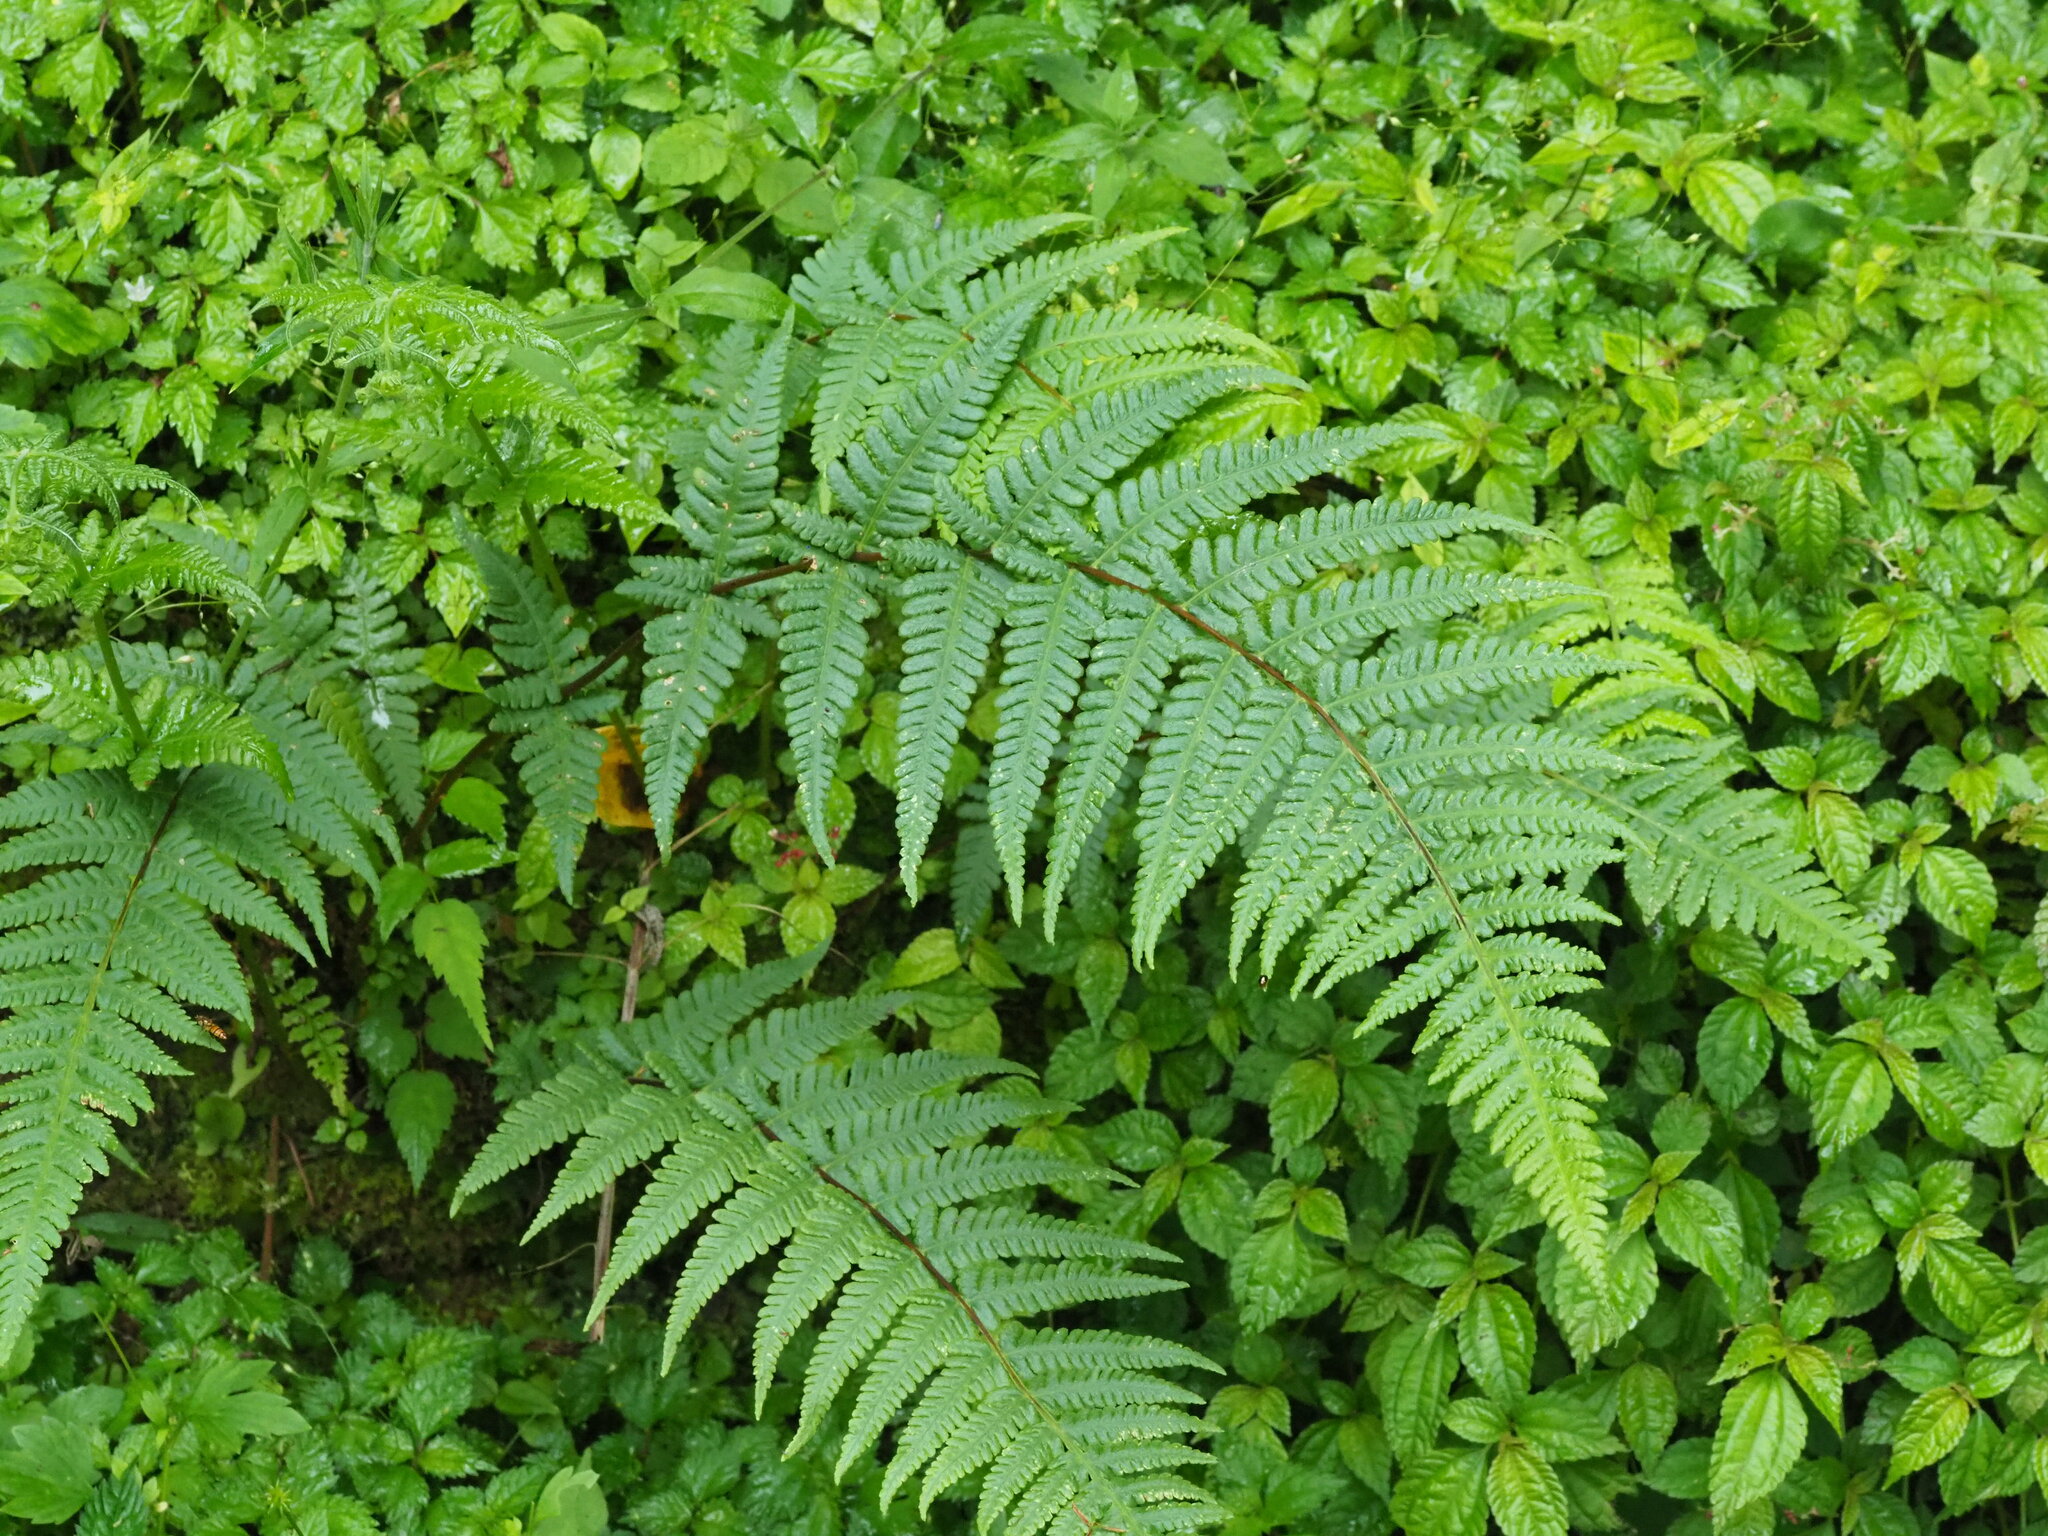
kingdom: Plantae
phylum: Tracheophyta
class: Polypodiopsida
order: Polypodiales
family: Thelypteridaceae
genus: Pseudophegopteris
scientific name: Pseudophegopteris subaurita
